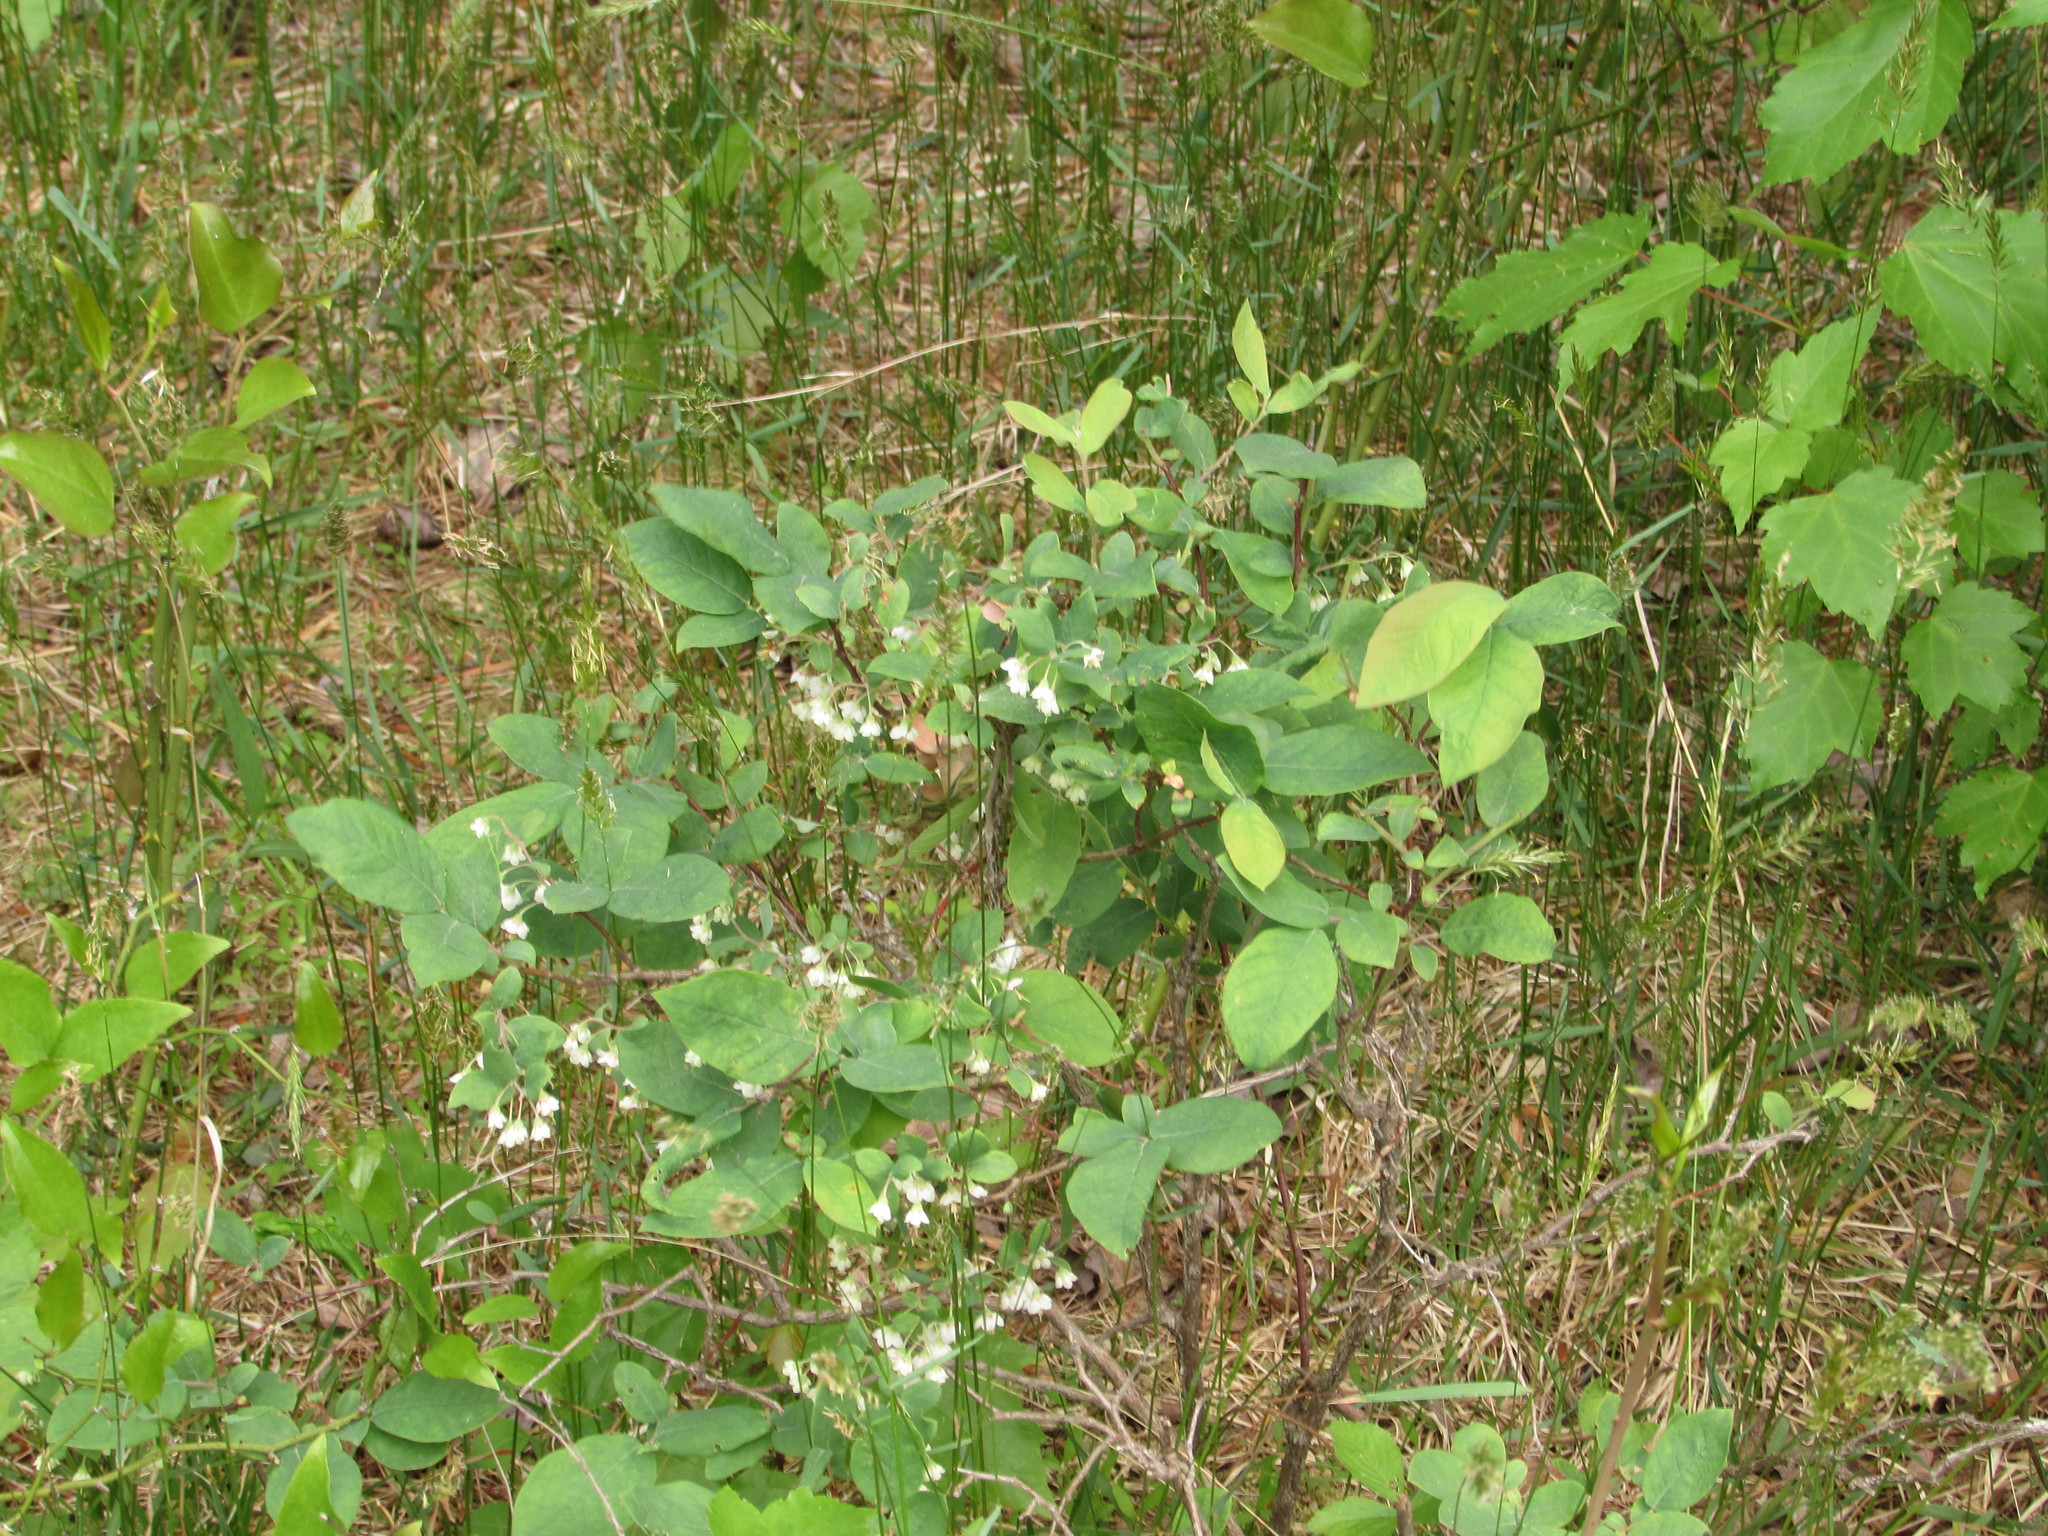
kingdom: Plantae
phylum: Tracheophyta
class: Magnoliopsida
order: Ericales
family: Ericaceae
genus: Vaccinium
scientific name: Vaccinium stamineum
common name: Deerberry
